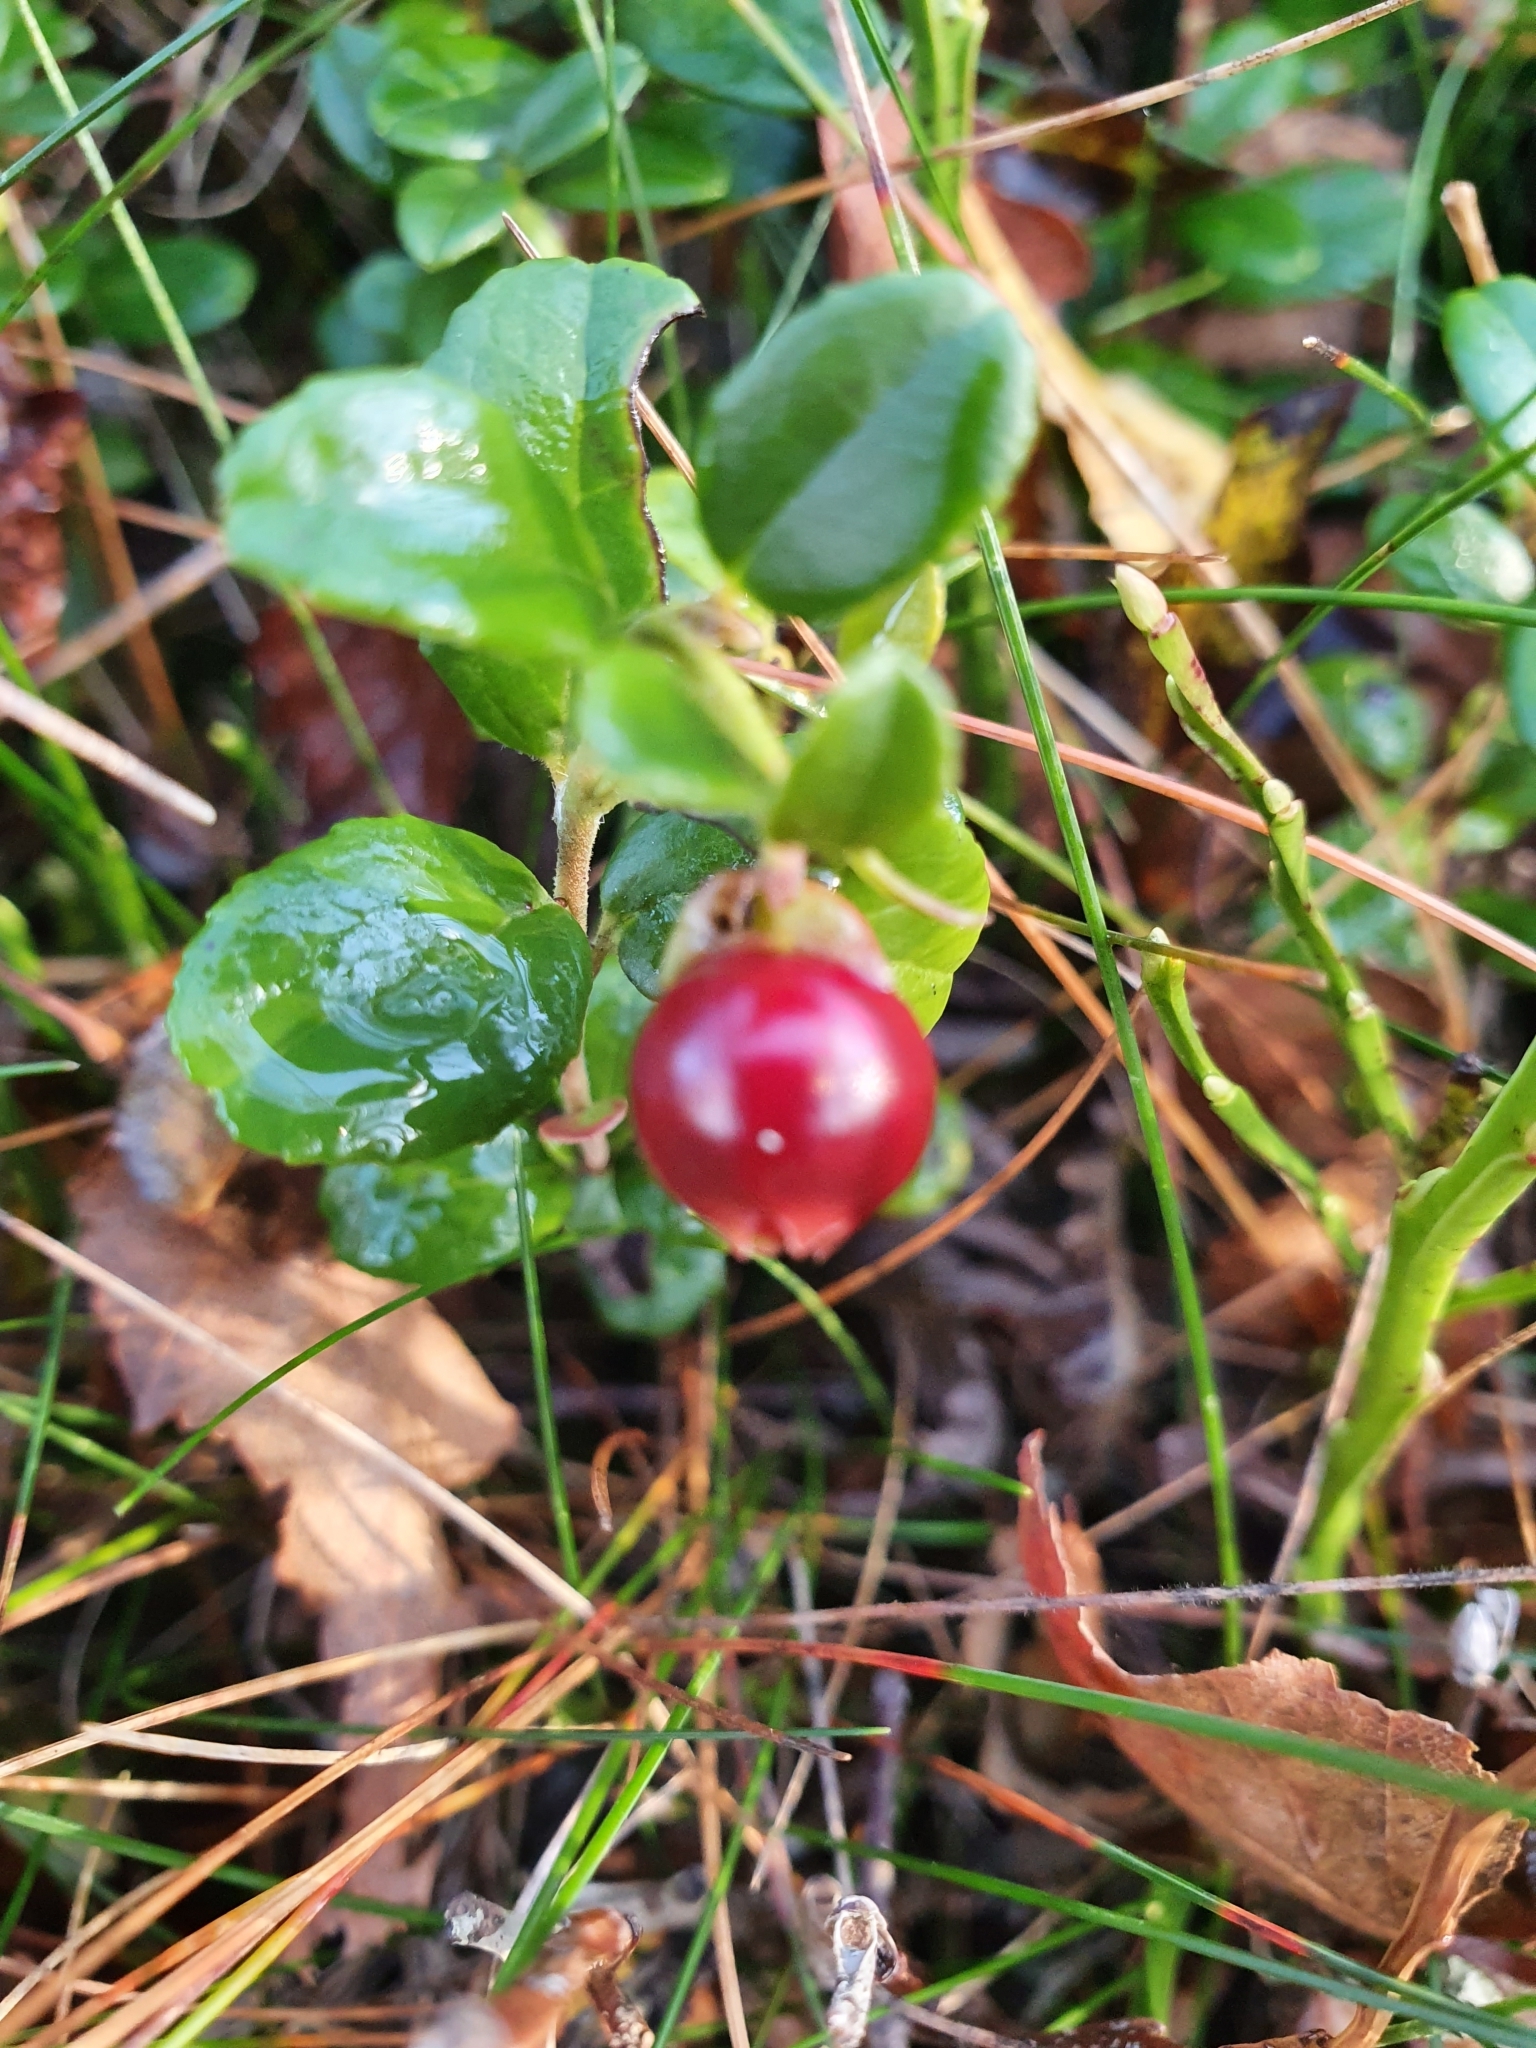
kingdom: Plantae
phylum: Tracheophyta
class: Magnoliopsida
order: Ericales
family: Ericaceae
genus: Vaccinium
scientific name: Vaccinium vitis-idaea
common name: Cowberry
